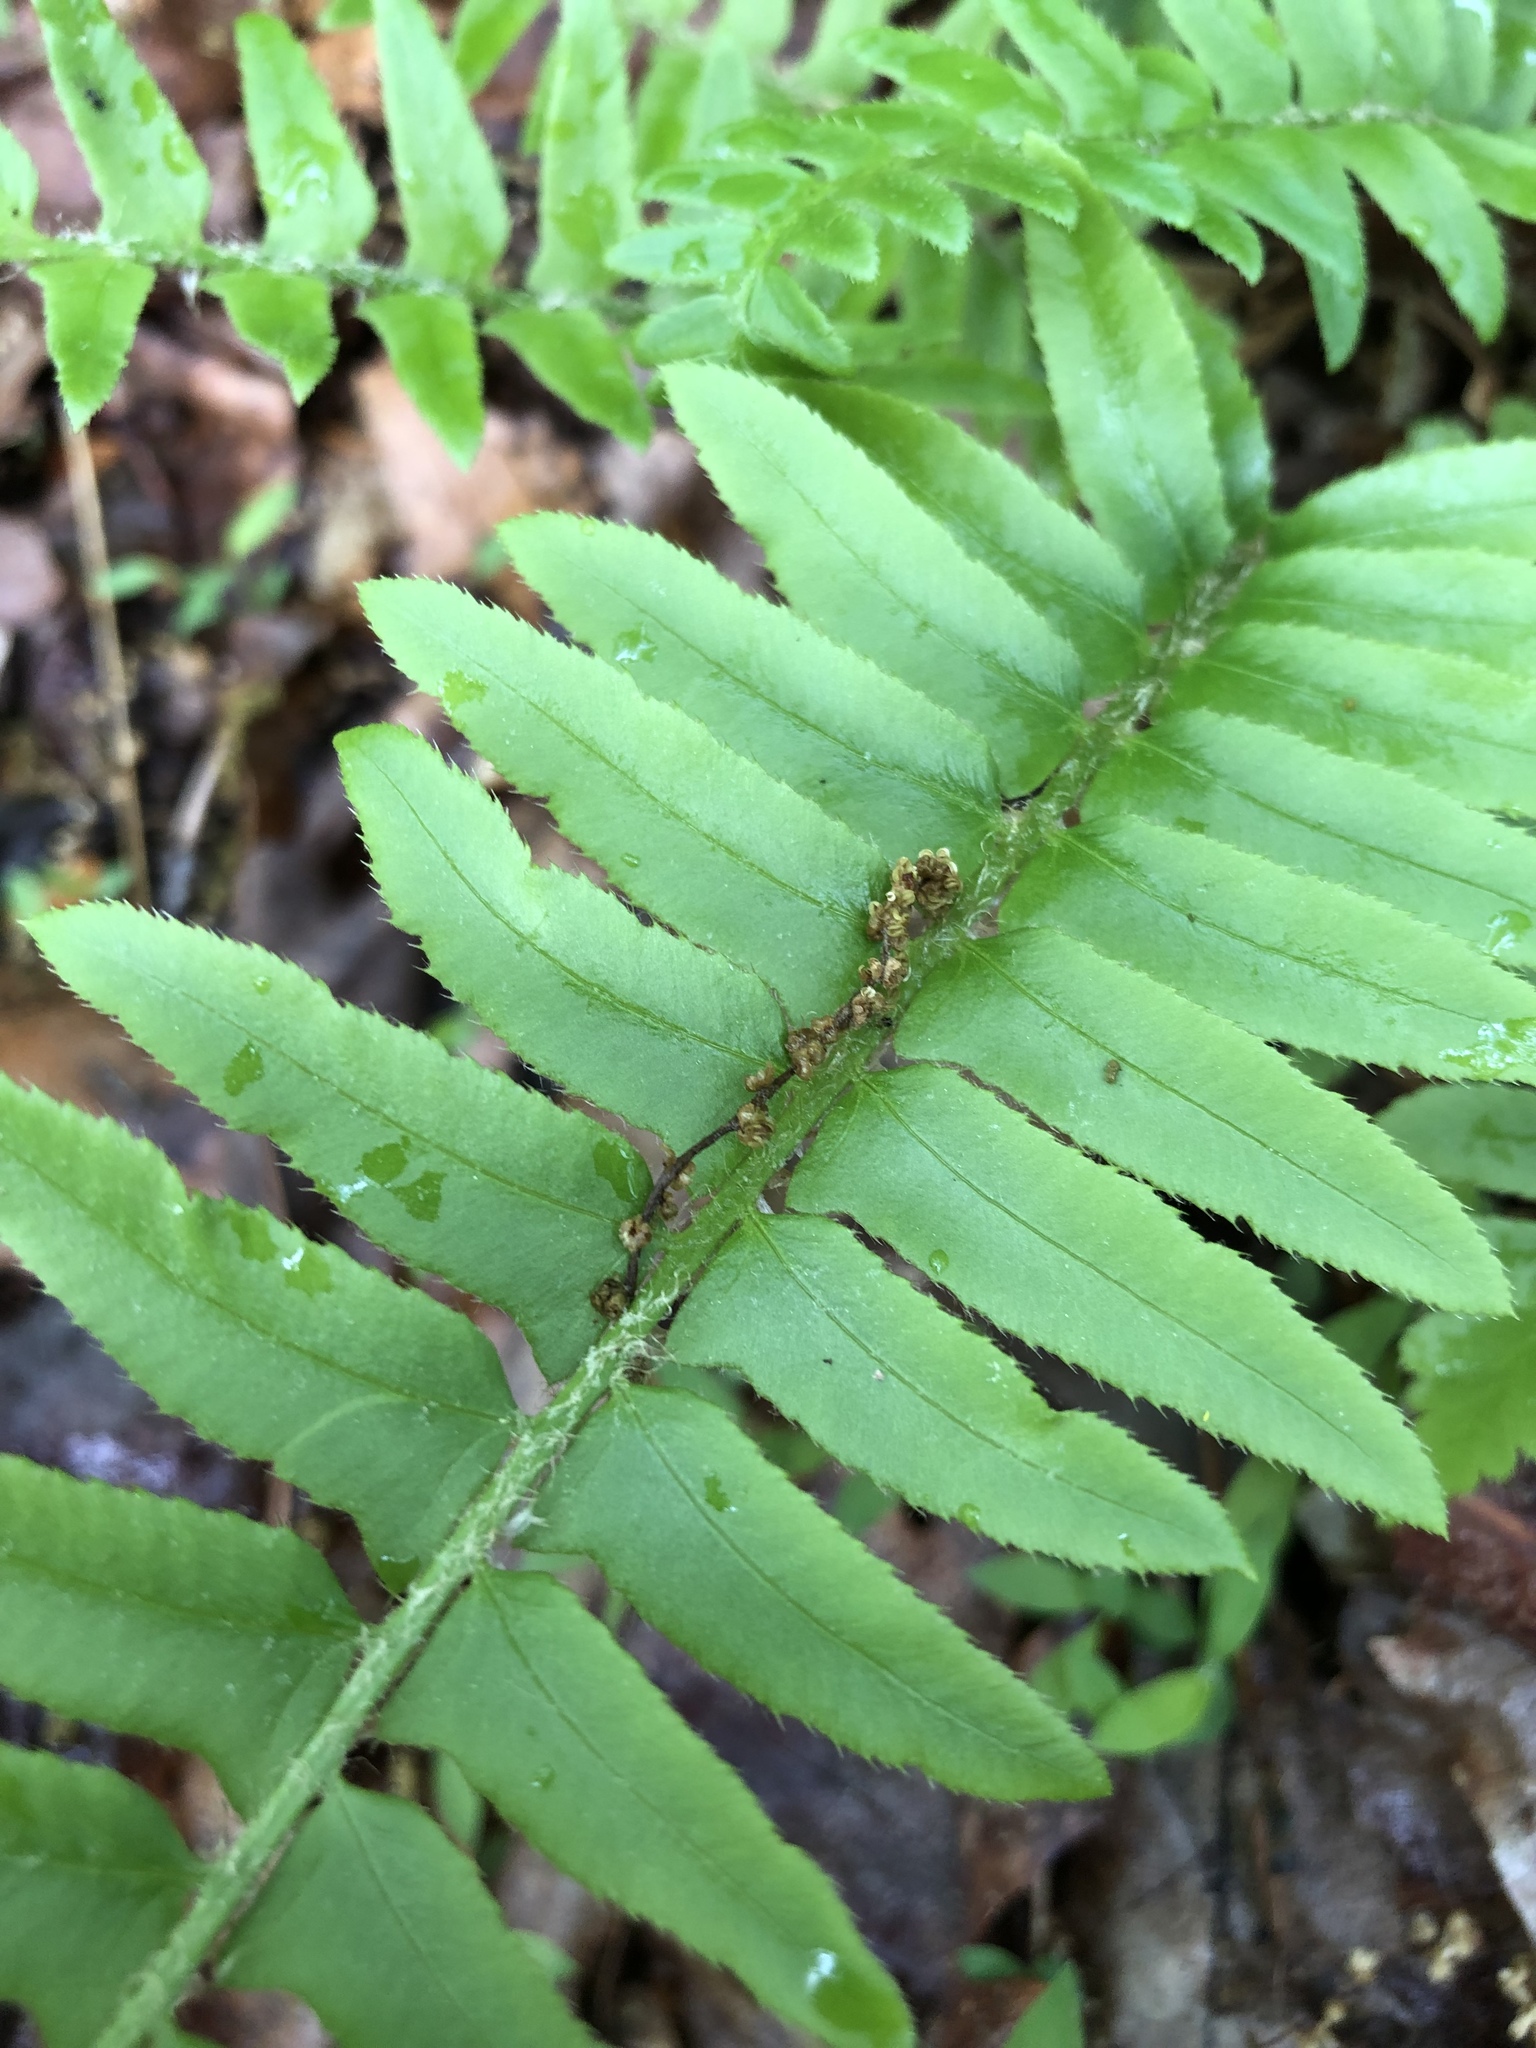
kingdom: Plantae
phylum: Tracheophyta
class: Polypodiopsida
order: Polypodiales
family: Dryopteridaceae
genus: Polystichum
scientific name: Polystichum acrostichoides
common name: Christmas fern
